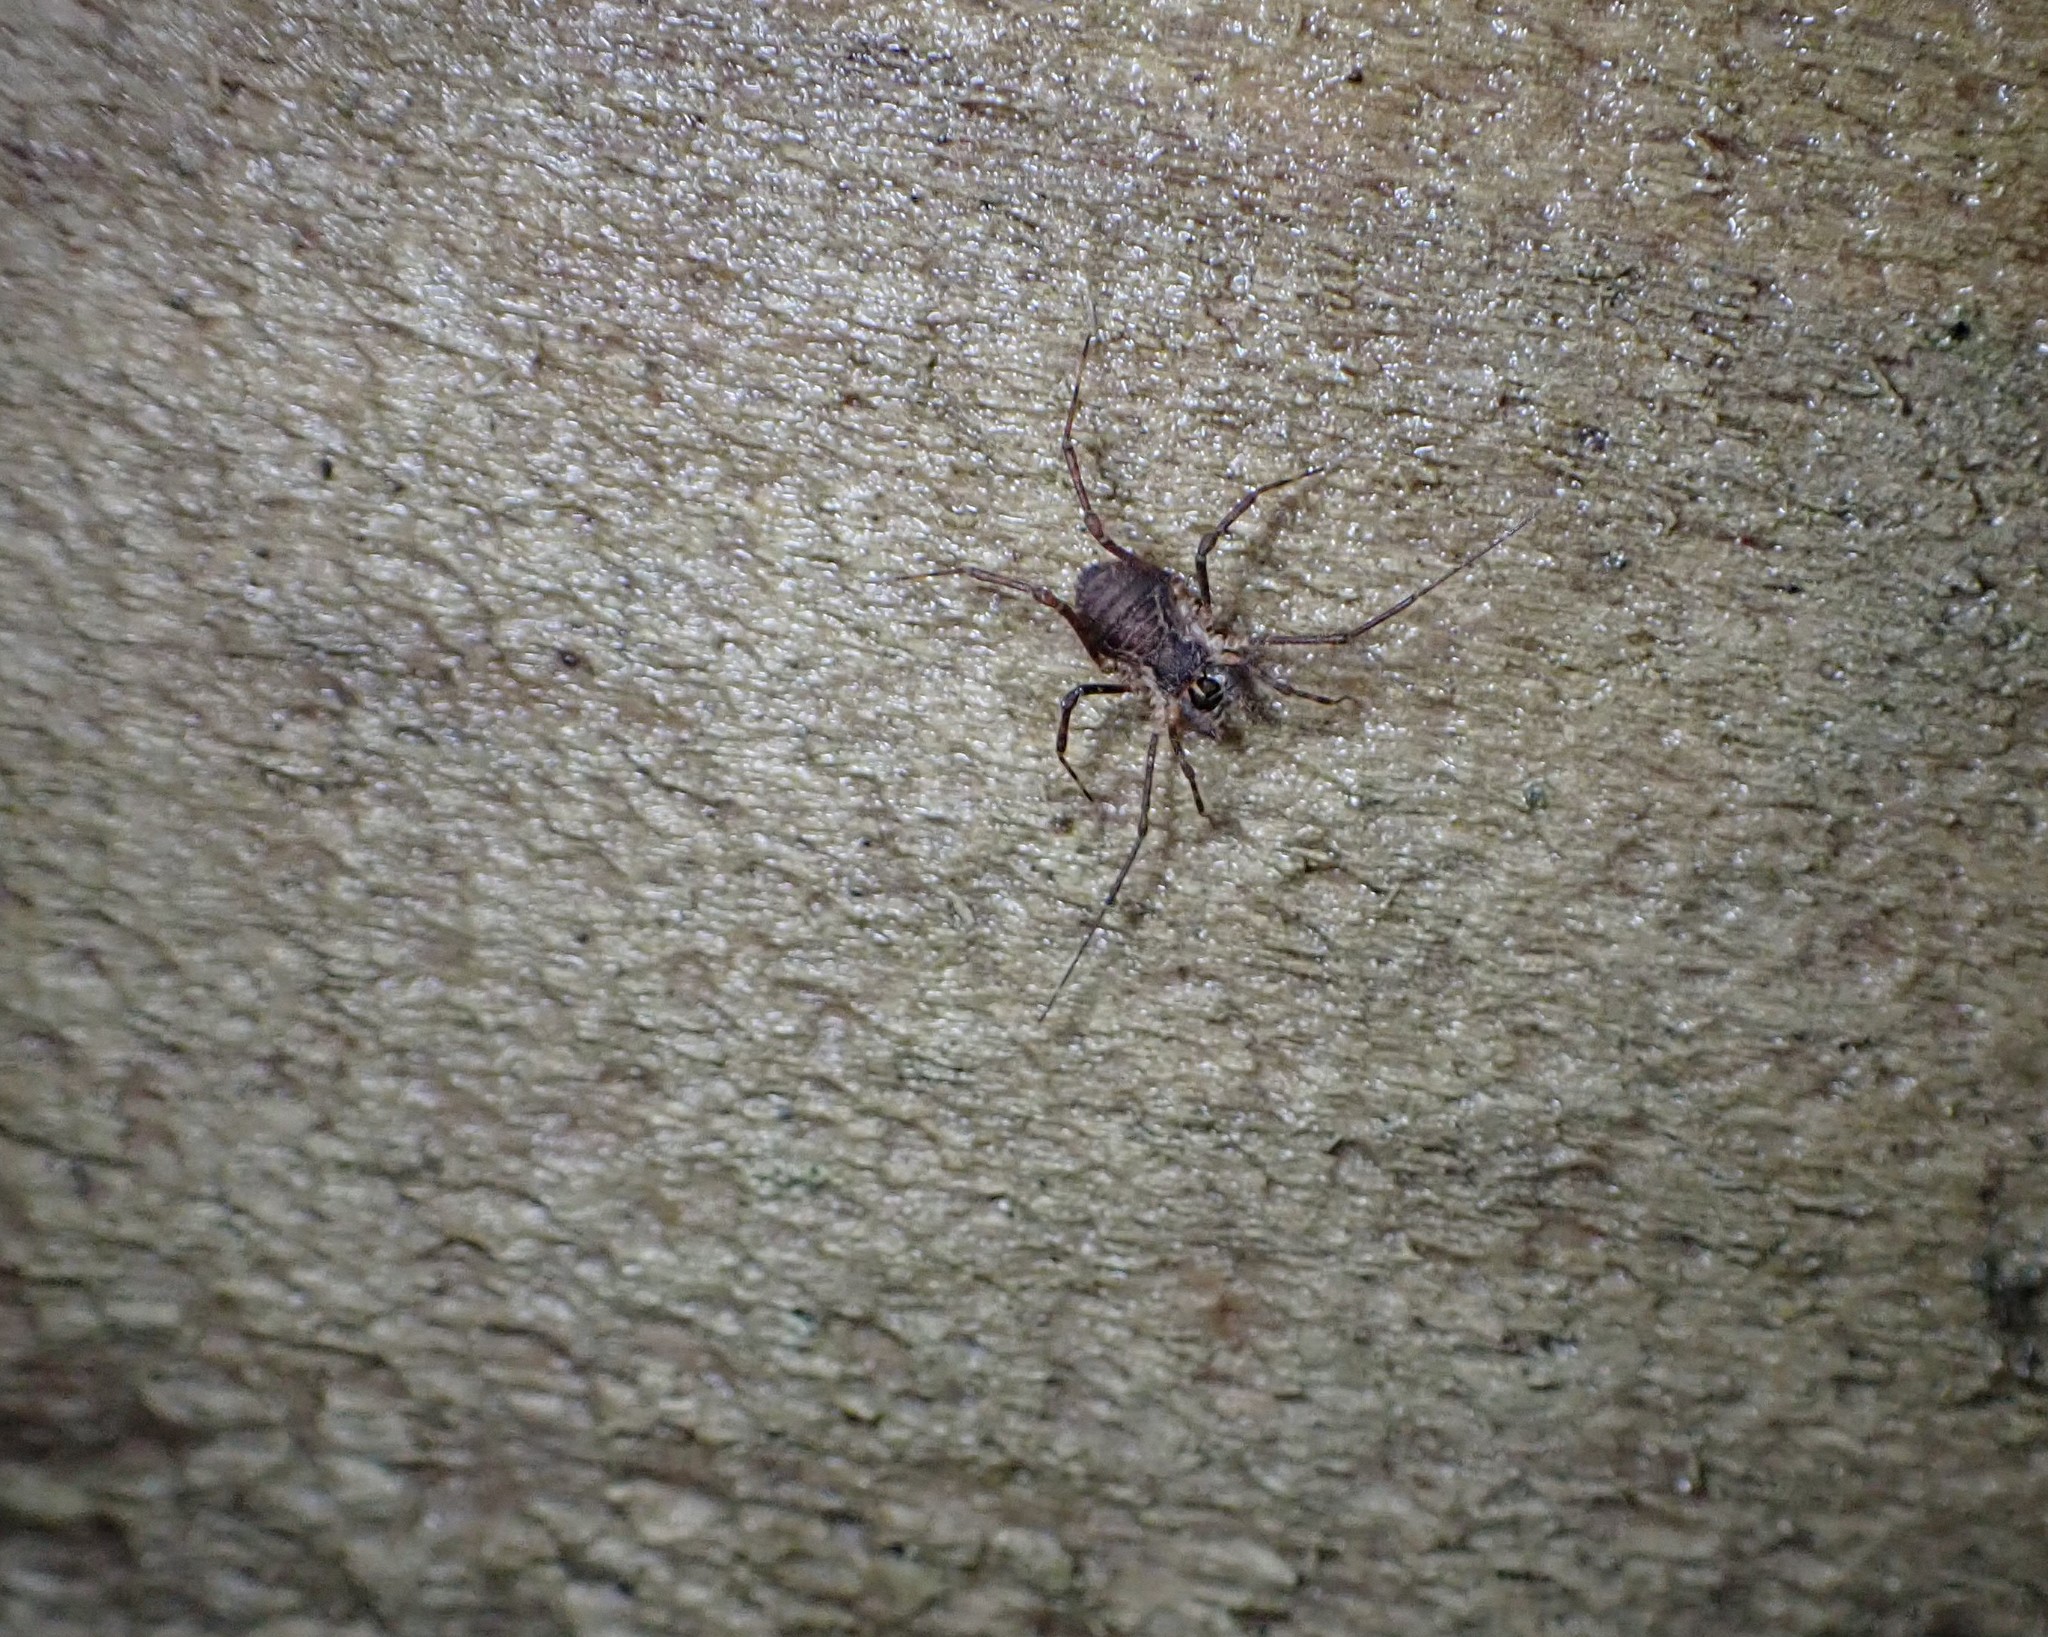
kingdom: Animalia
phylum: Arthropoda
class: Arachnida
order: Opiliones
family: Triaenonychidae
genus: Algidia
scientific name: Algidia chiltoni
